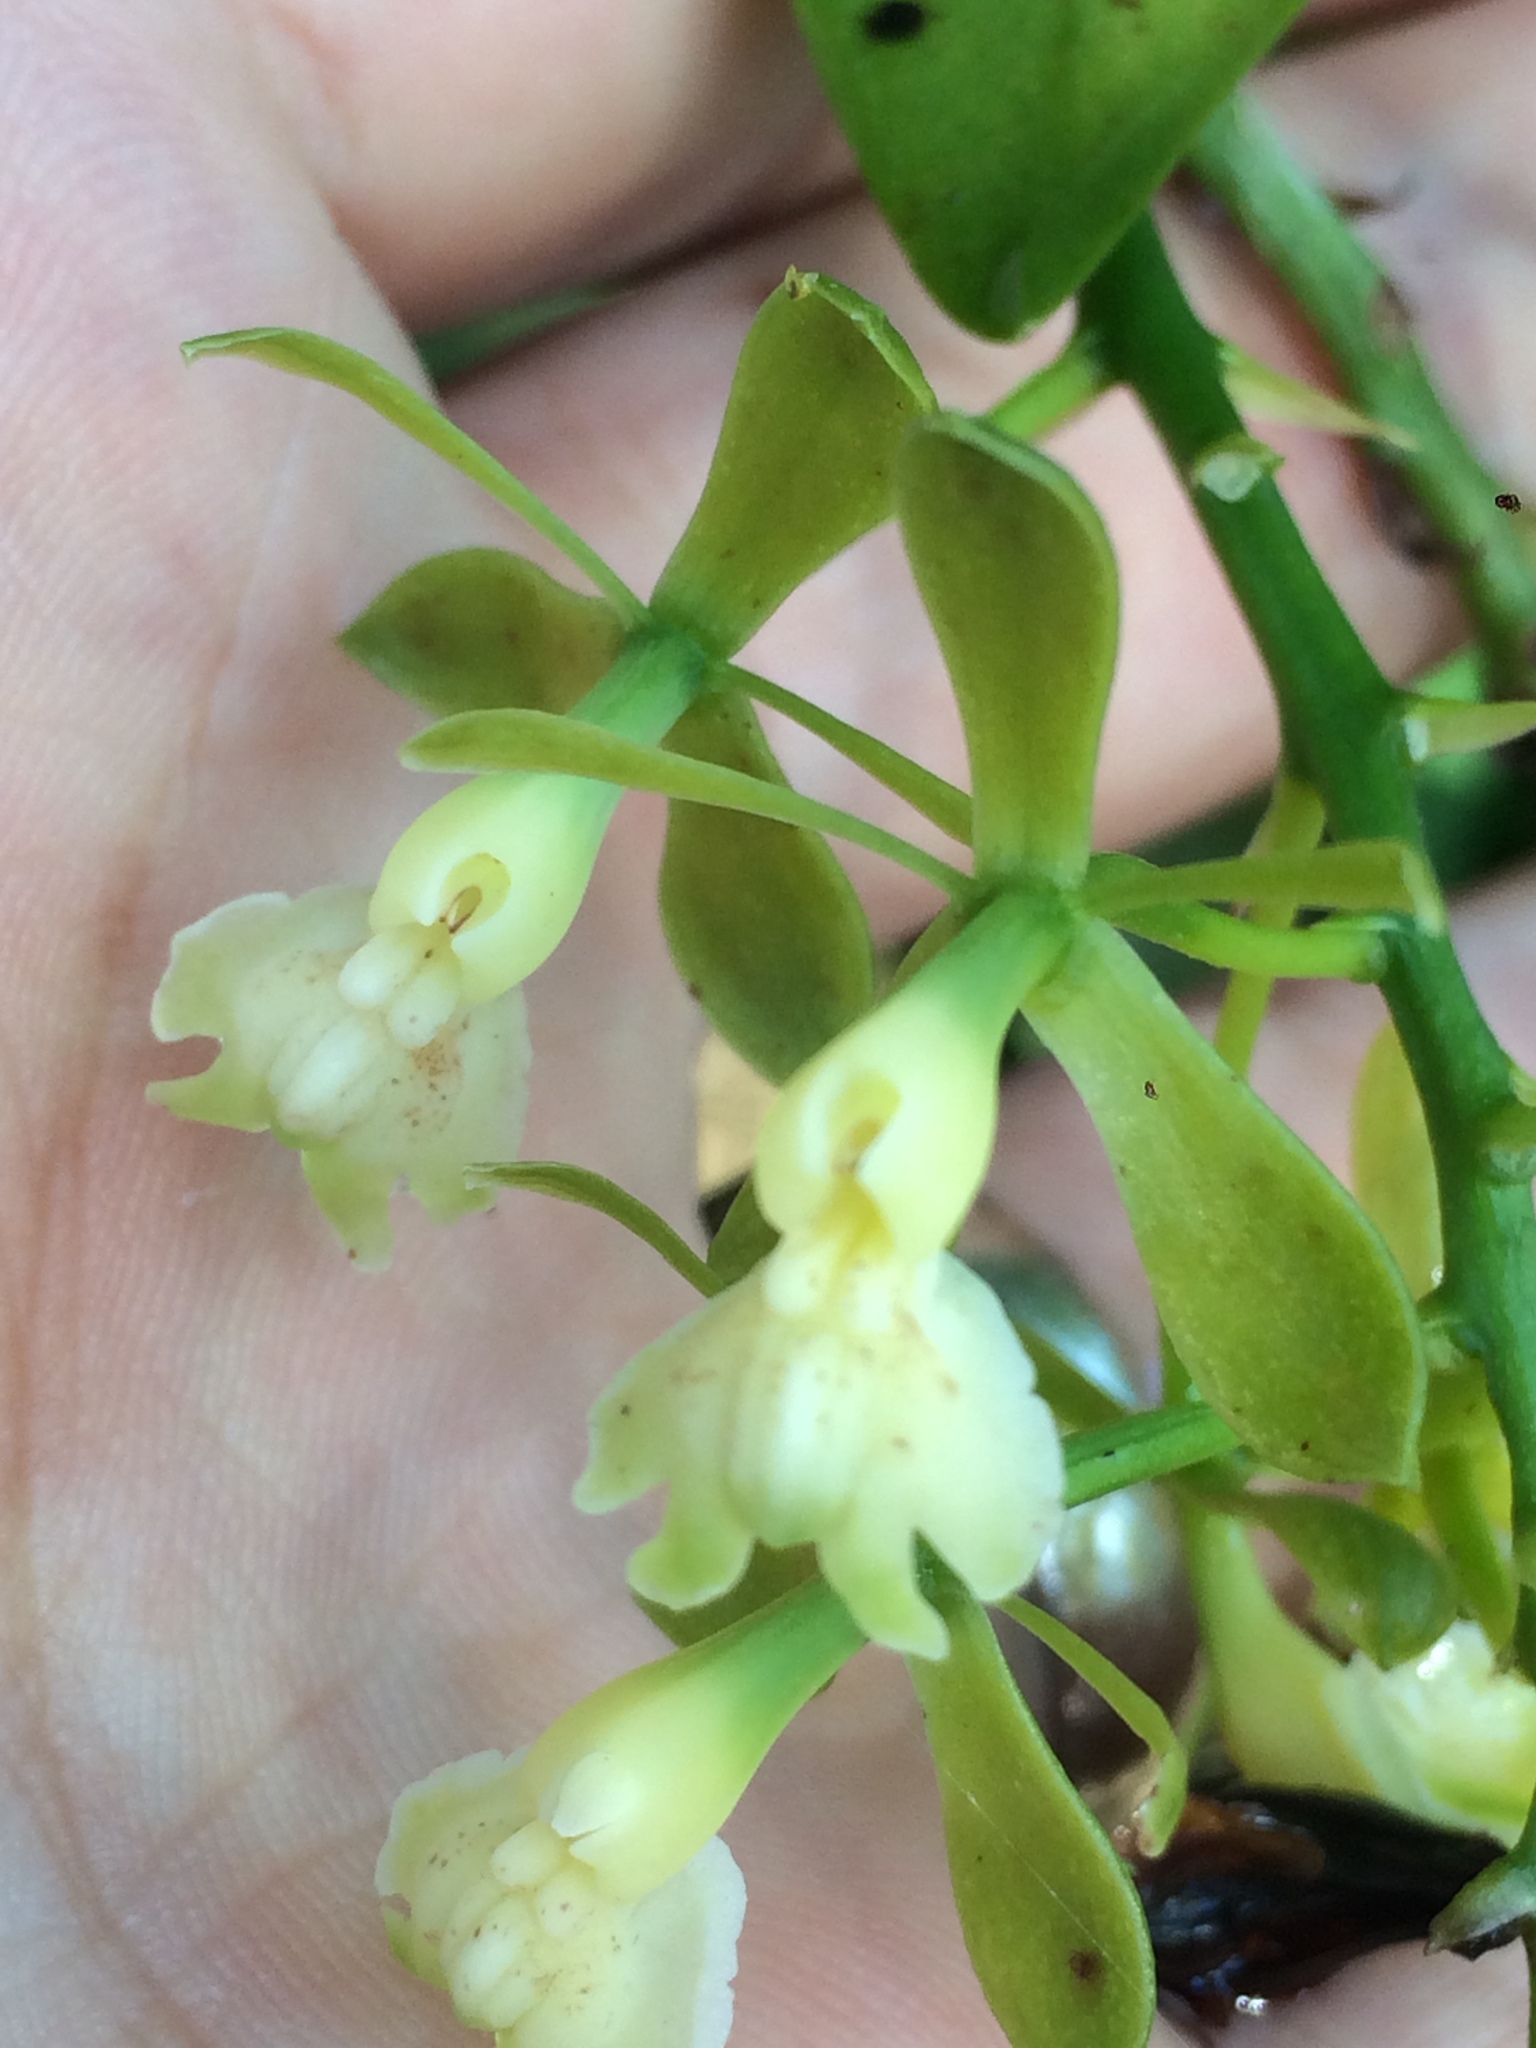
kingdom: Plantae
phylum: Tracheophyta
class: Liliopsida
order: Asparagales
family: Orchidaceae
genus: Epidendrum
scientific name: Epidendrum hassleri
